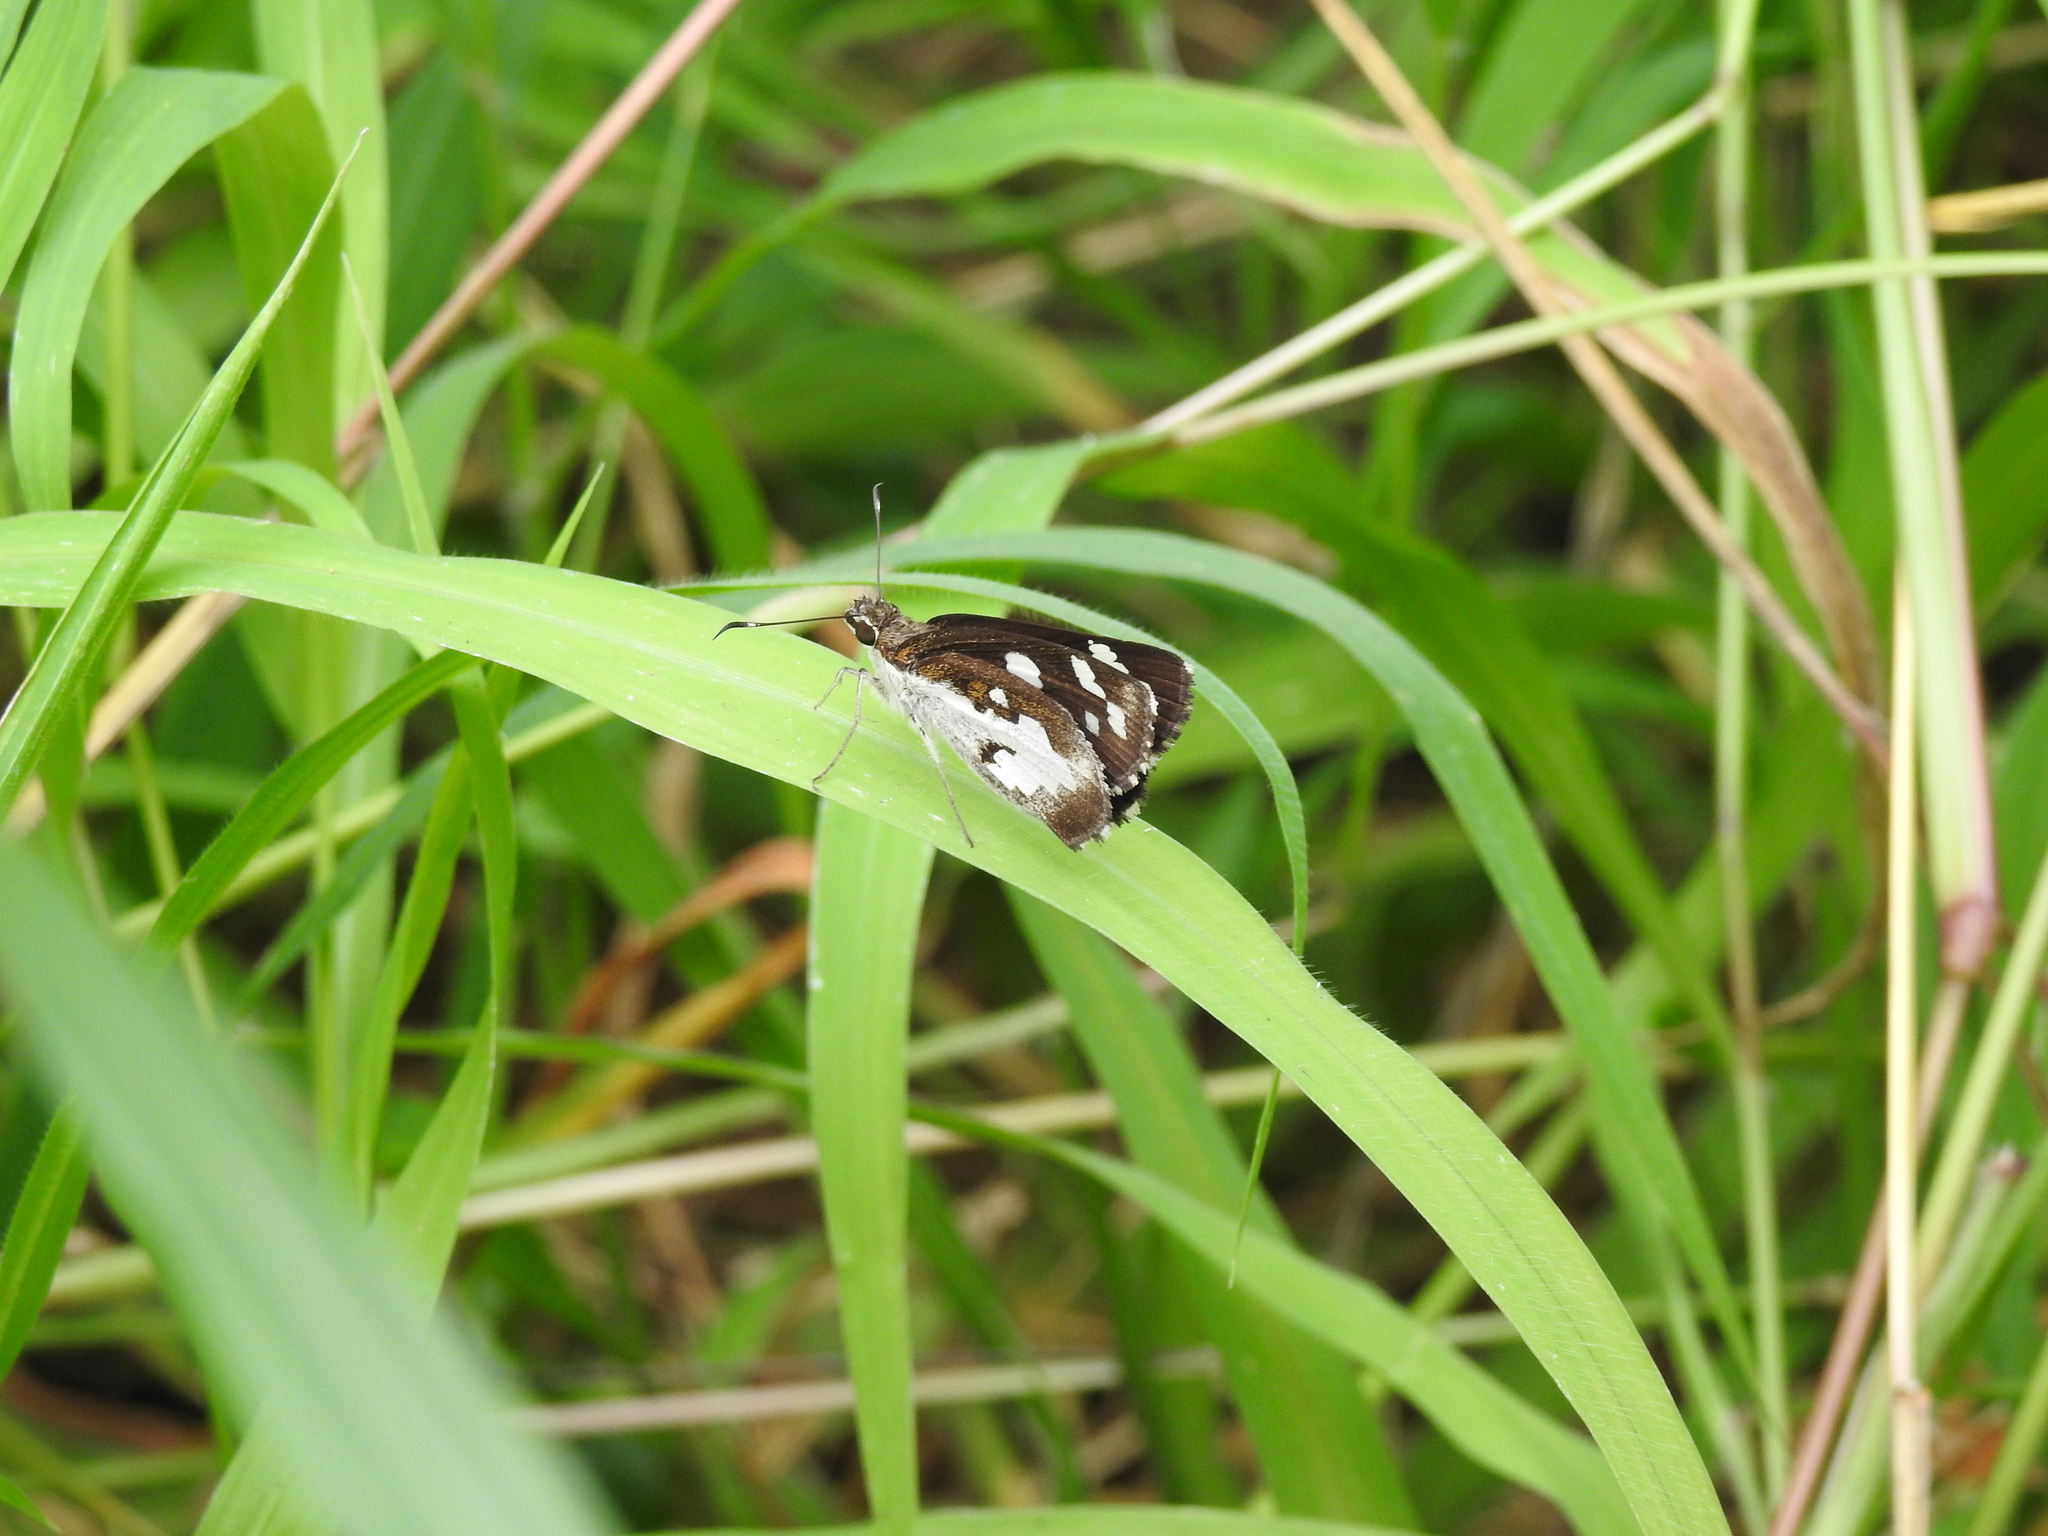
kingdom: Animalia
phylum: Arthropoda
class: Insecta
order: Lepidoptera
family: Hesperiidae
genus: Udaspes
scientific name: Udaspes folus
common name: Grass demon
